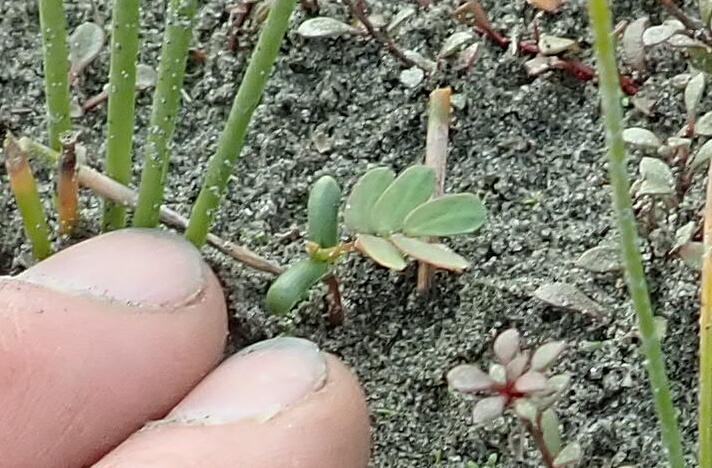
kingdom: Plantae
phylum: Tracheophyta
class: Magnoliopsida
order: Fabales
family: Fabaceae
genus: Acacia
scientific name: Acacia longifolia
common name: Sydney golden wattle
